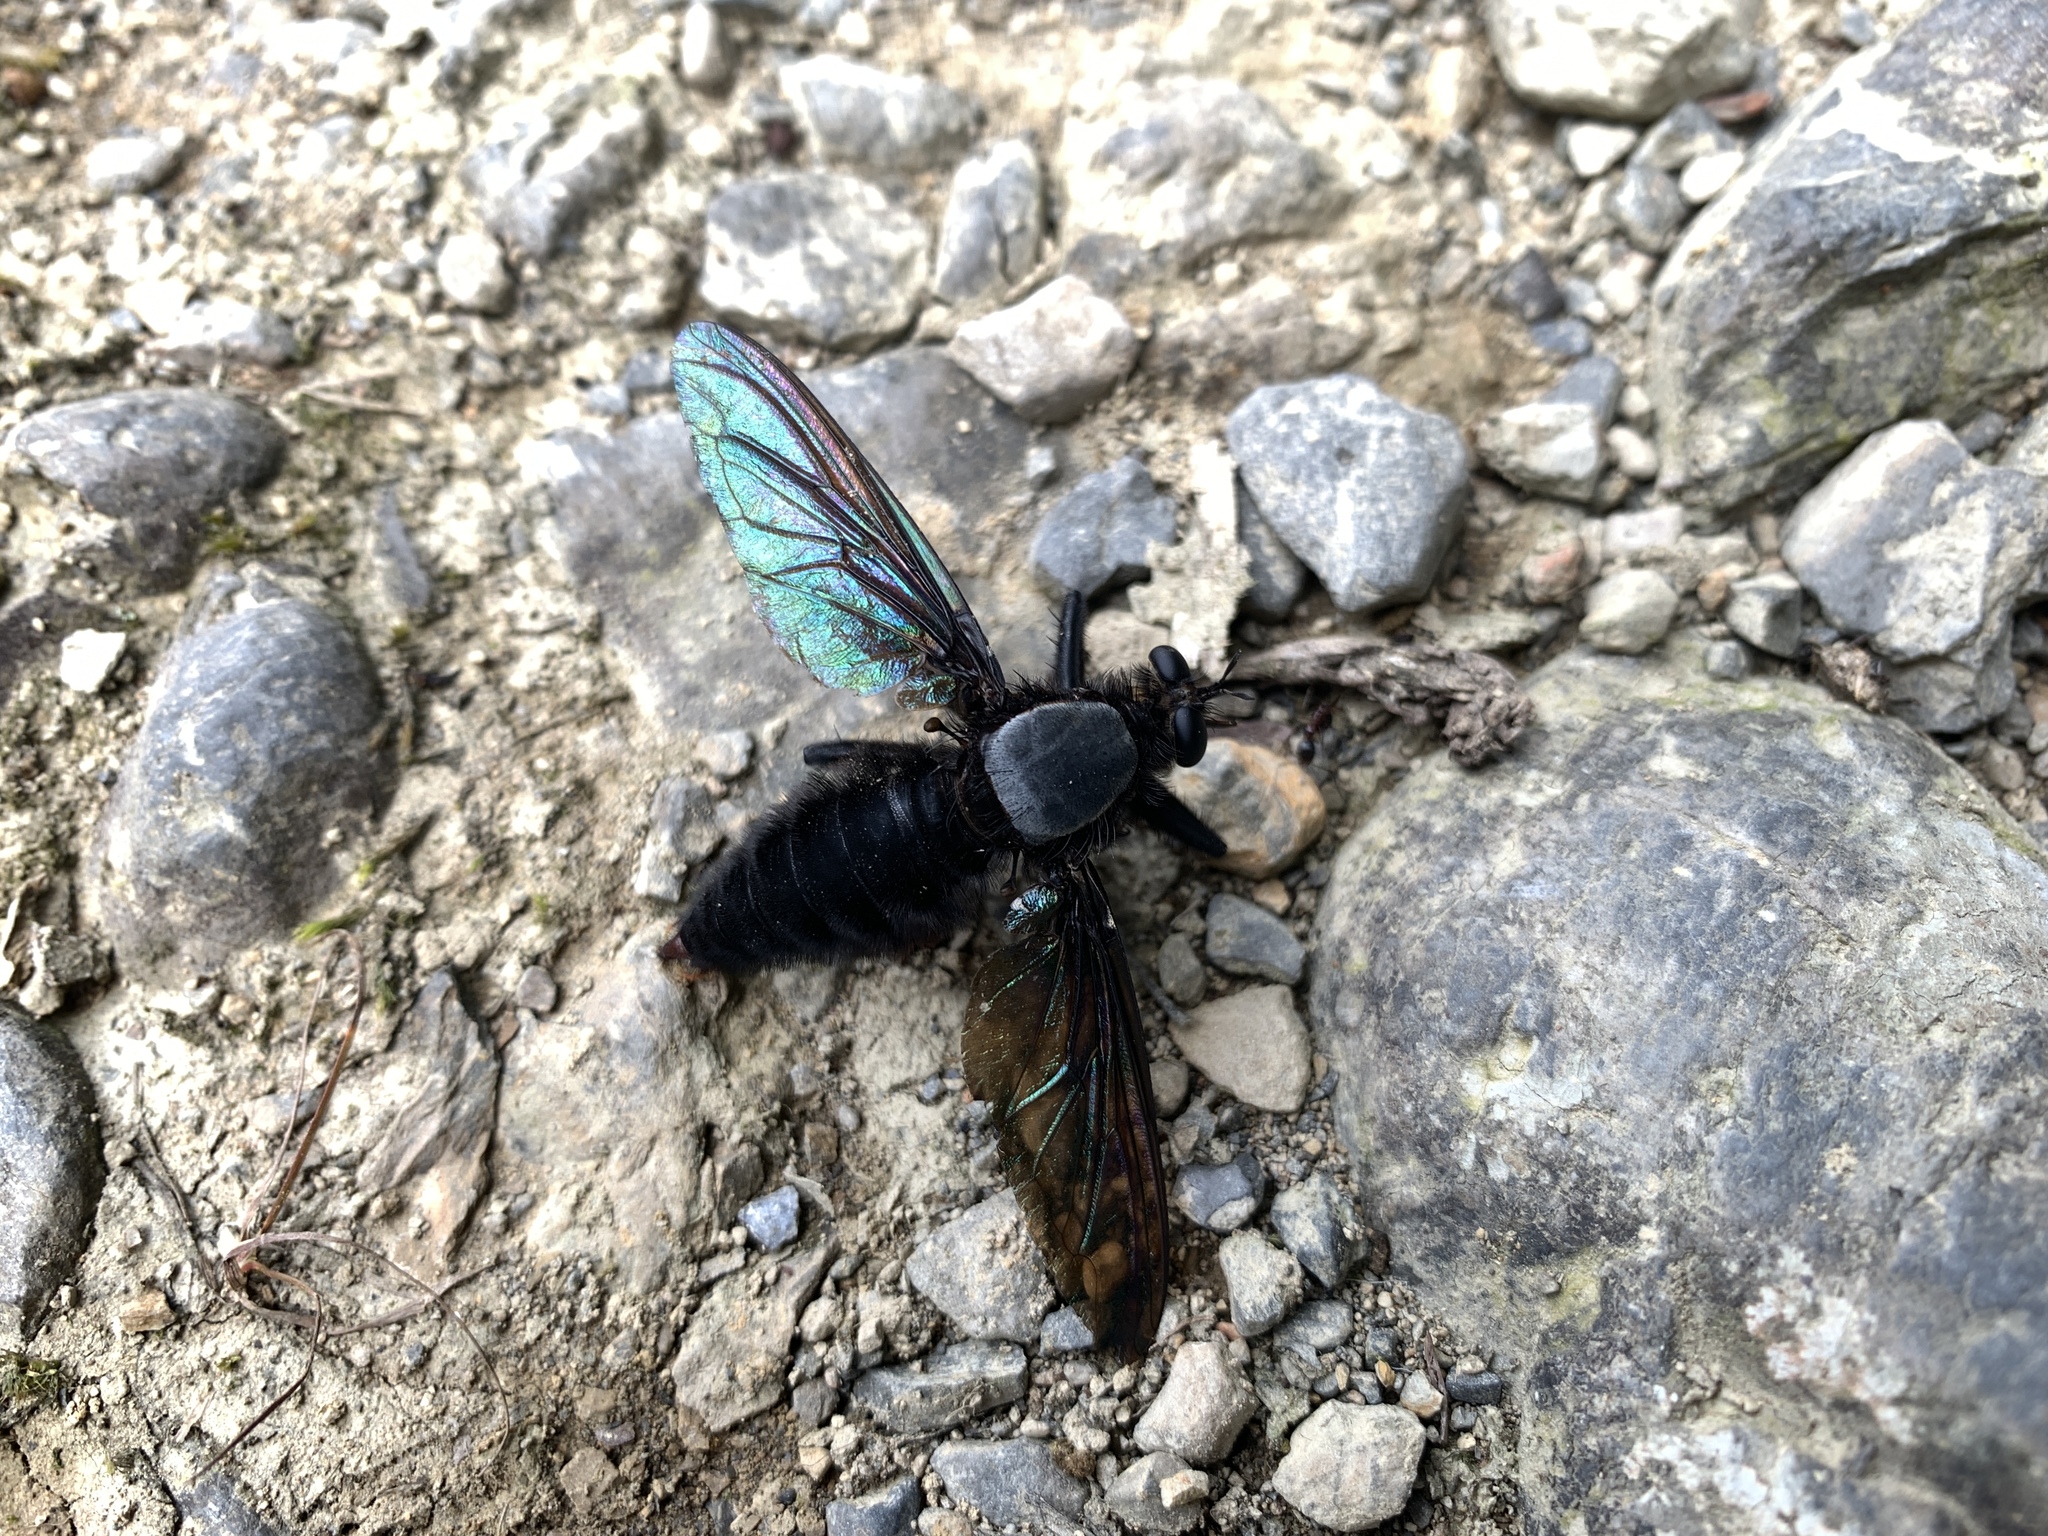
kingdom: Animalia
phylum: Arthropoda
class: Insecta
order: Diptera
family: Asilidae
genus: Microstylum
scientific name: Microstylum oberthurii
